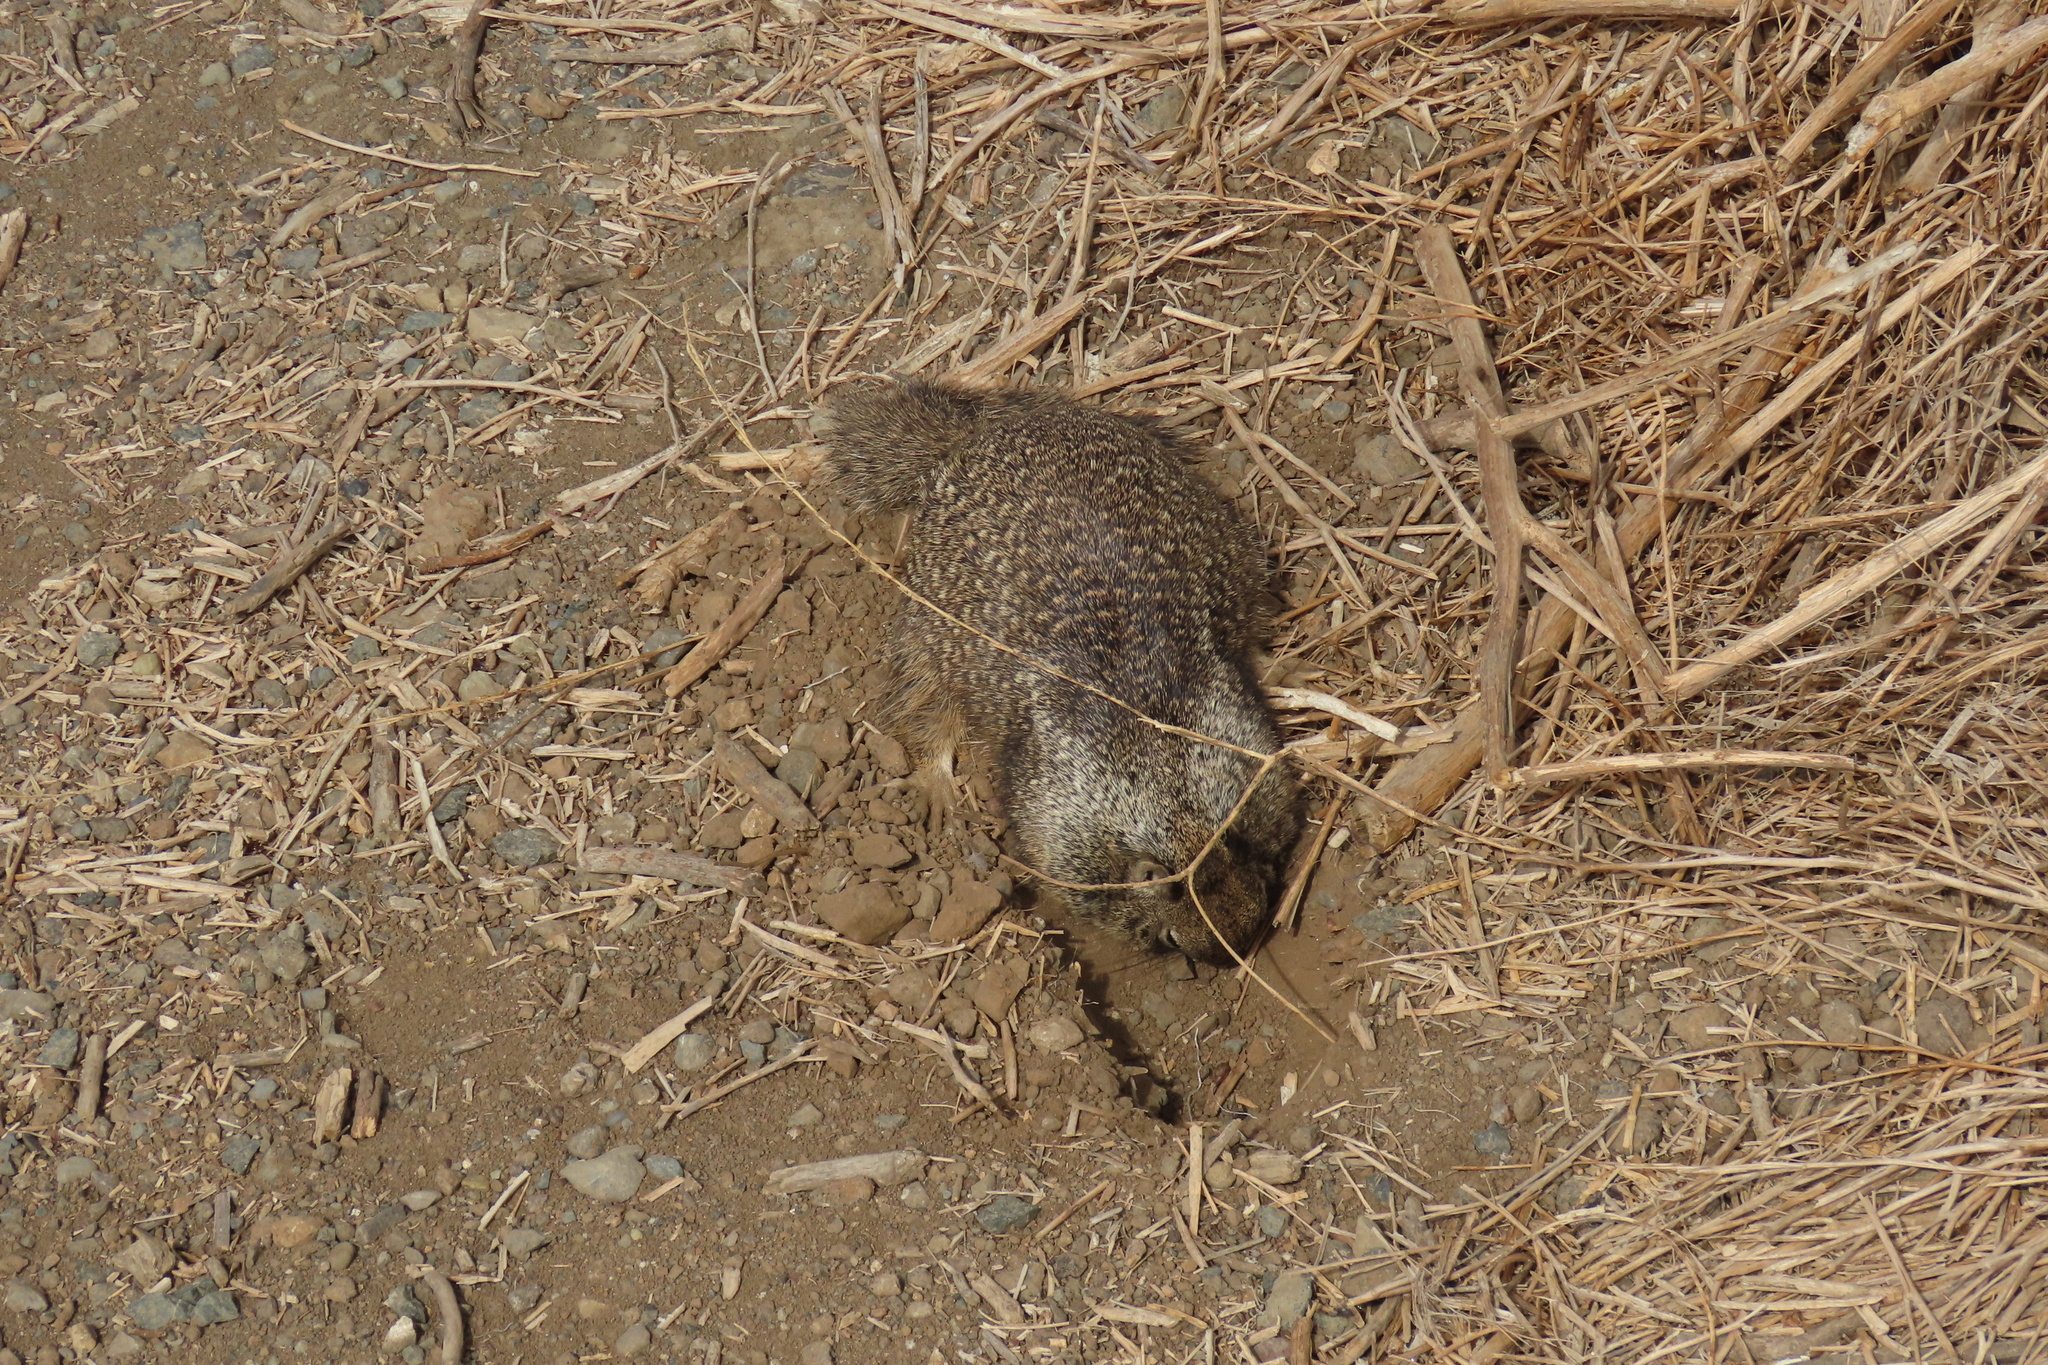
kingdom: Animalia
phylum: Chordata
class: Mammalia
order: Rodentia
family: Sciuridae
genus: Otospermophilus
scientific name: Otospermophilus beecheyi
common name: California ground squirrel
